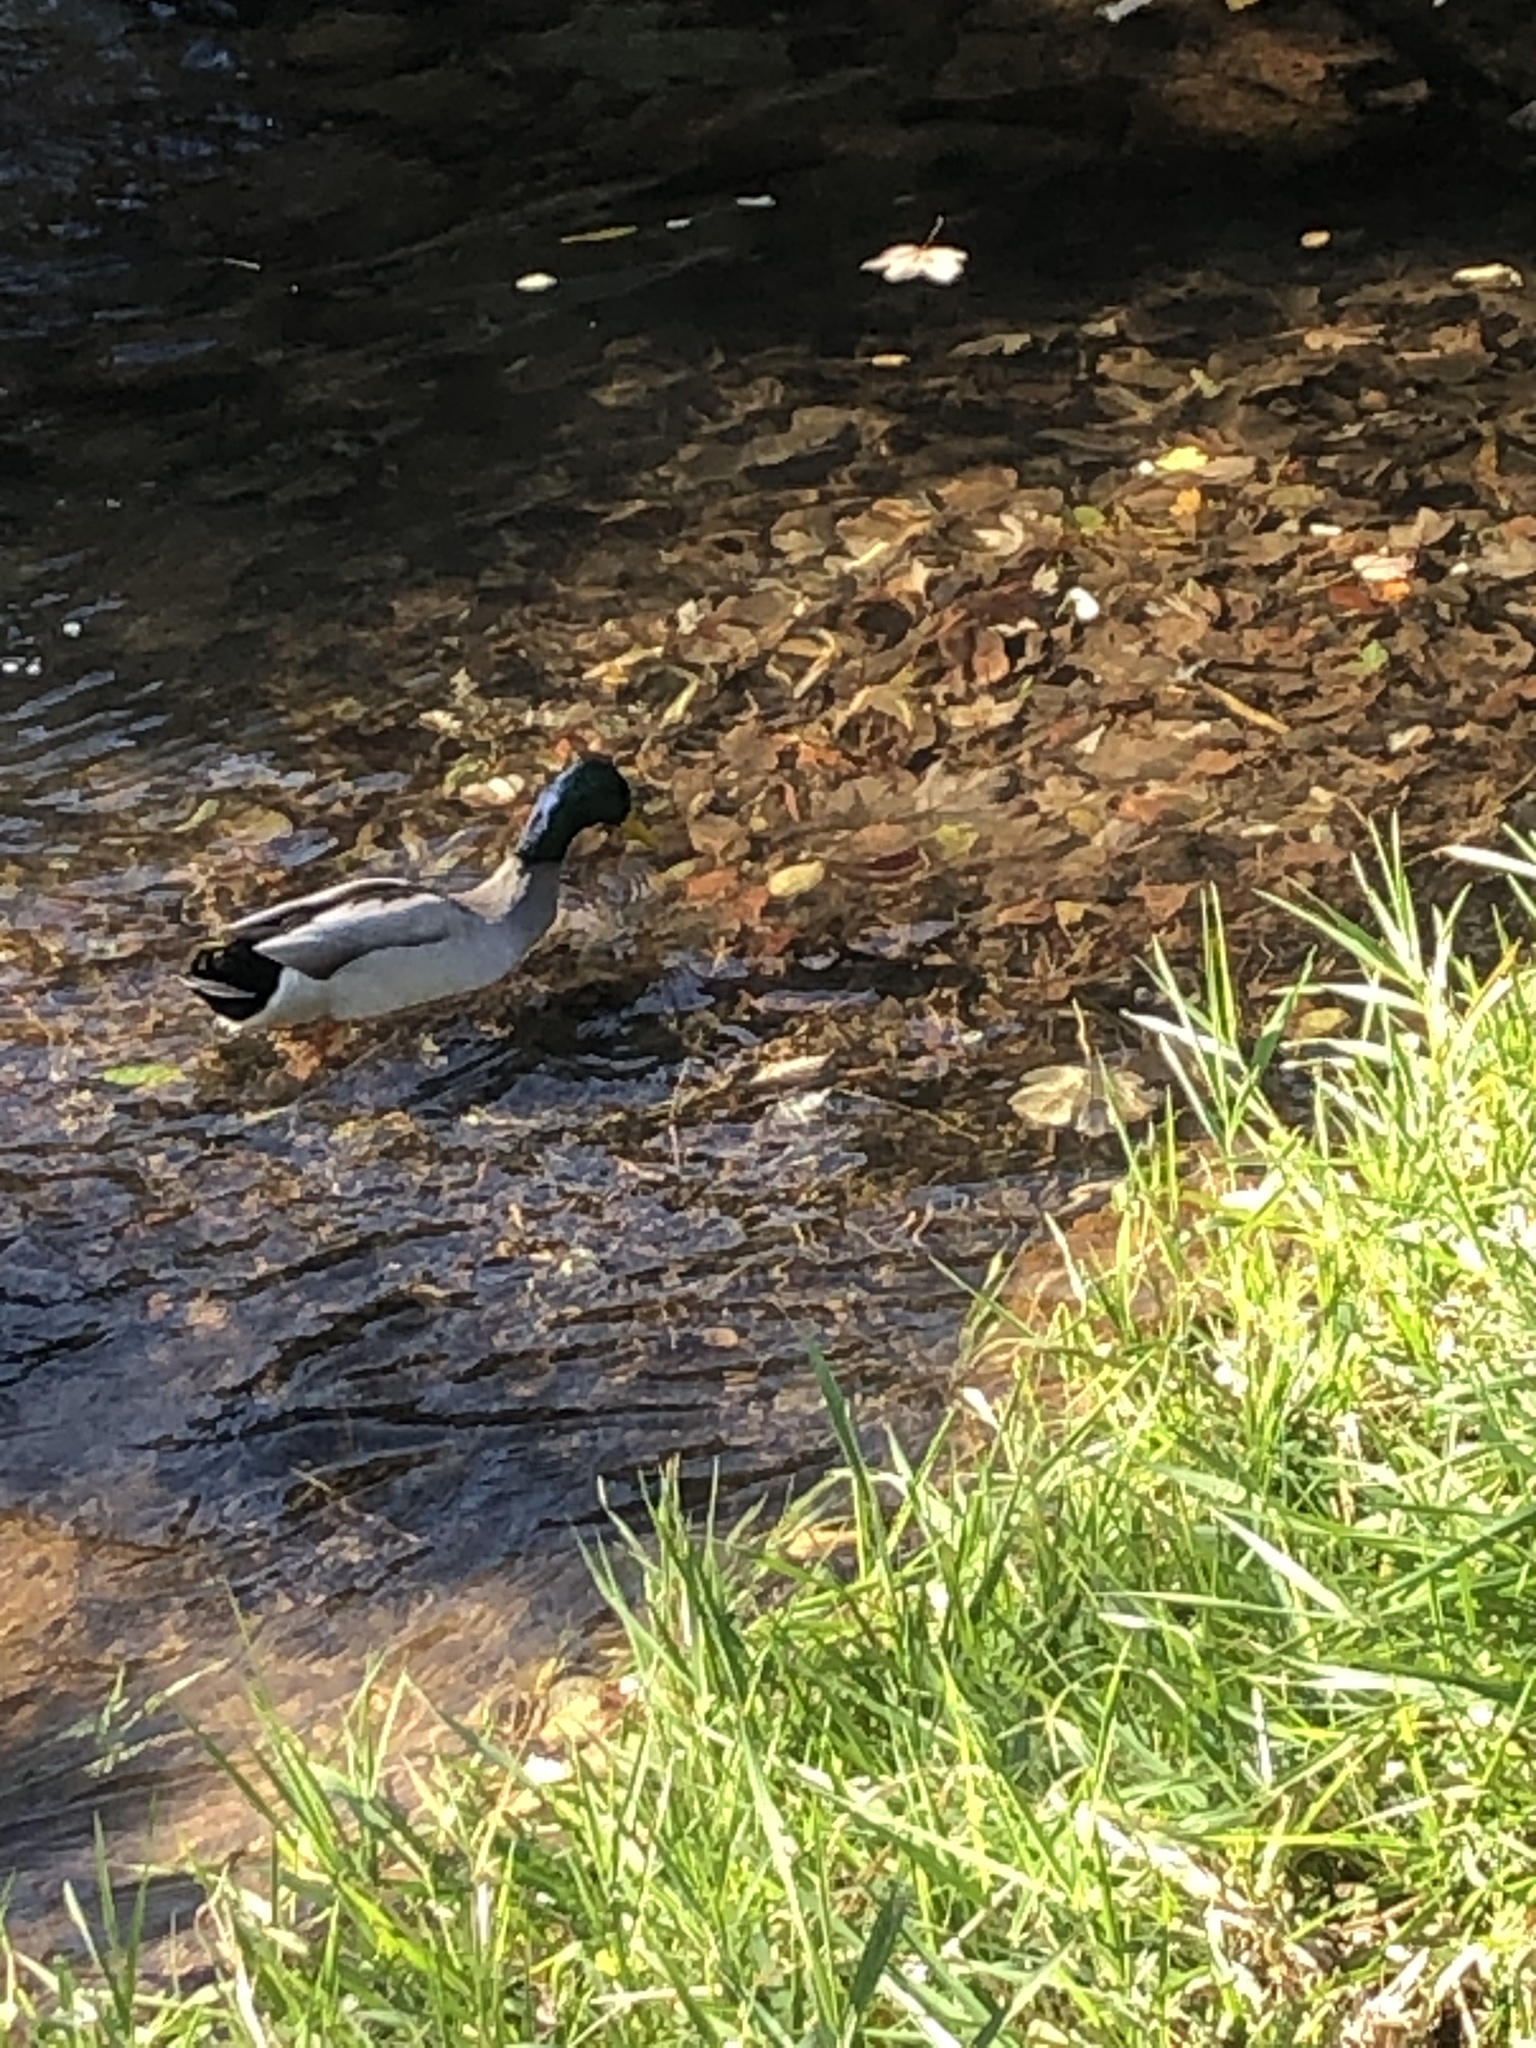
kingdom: Animalia
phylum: Chordata
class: Aves
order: Anseriformes
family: Anatidae
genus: Anas
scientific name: Anas platyrhynchos
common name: Mallard
